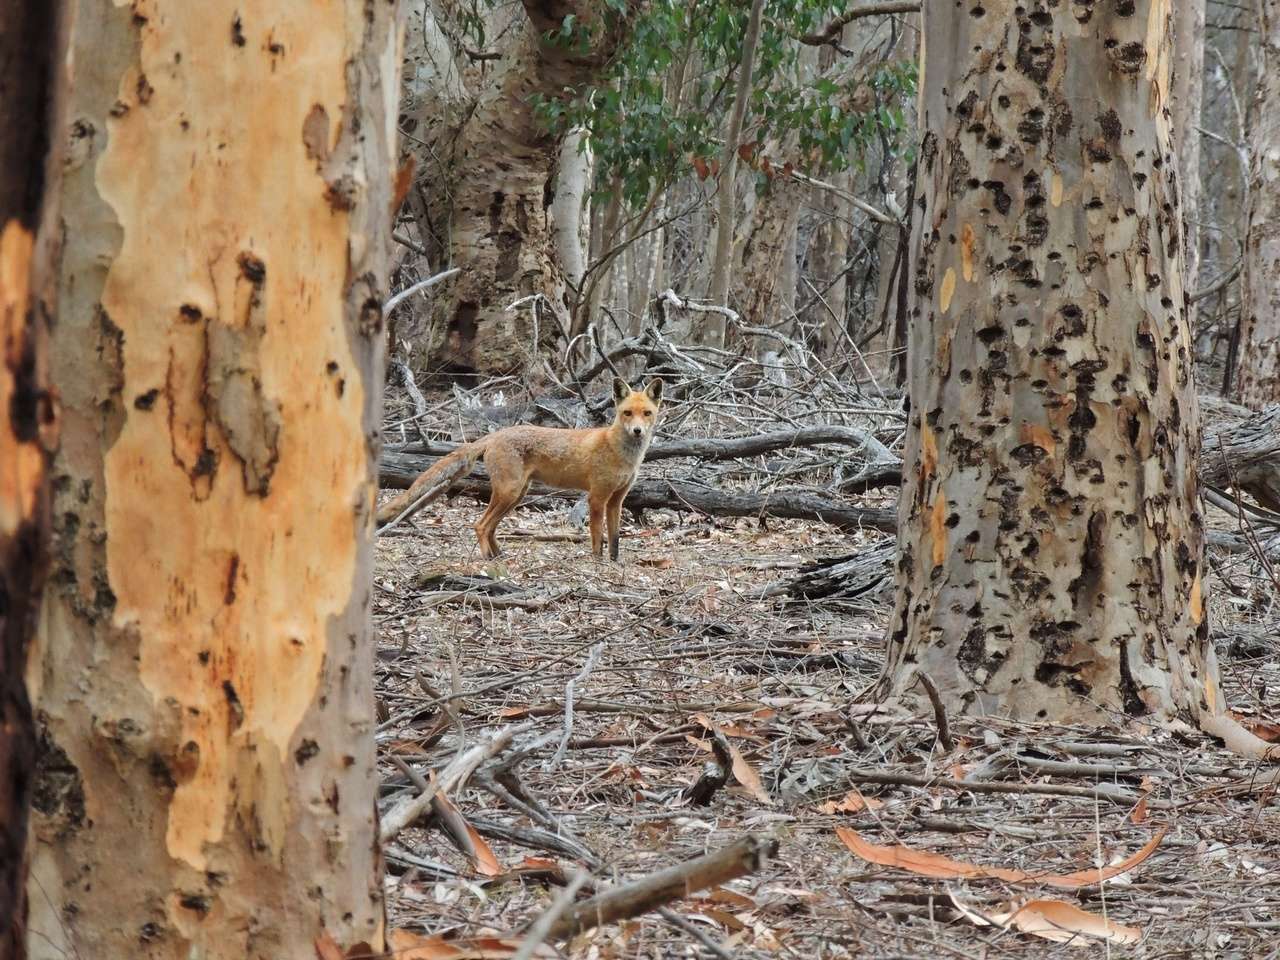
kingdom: Animalia
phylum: Chordata
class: Mammalia
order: Carnivora
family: Canidae
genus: Vulpes
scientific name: Vulpes vulpes
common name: Red fox
